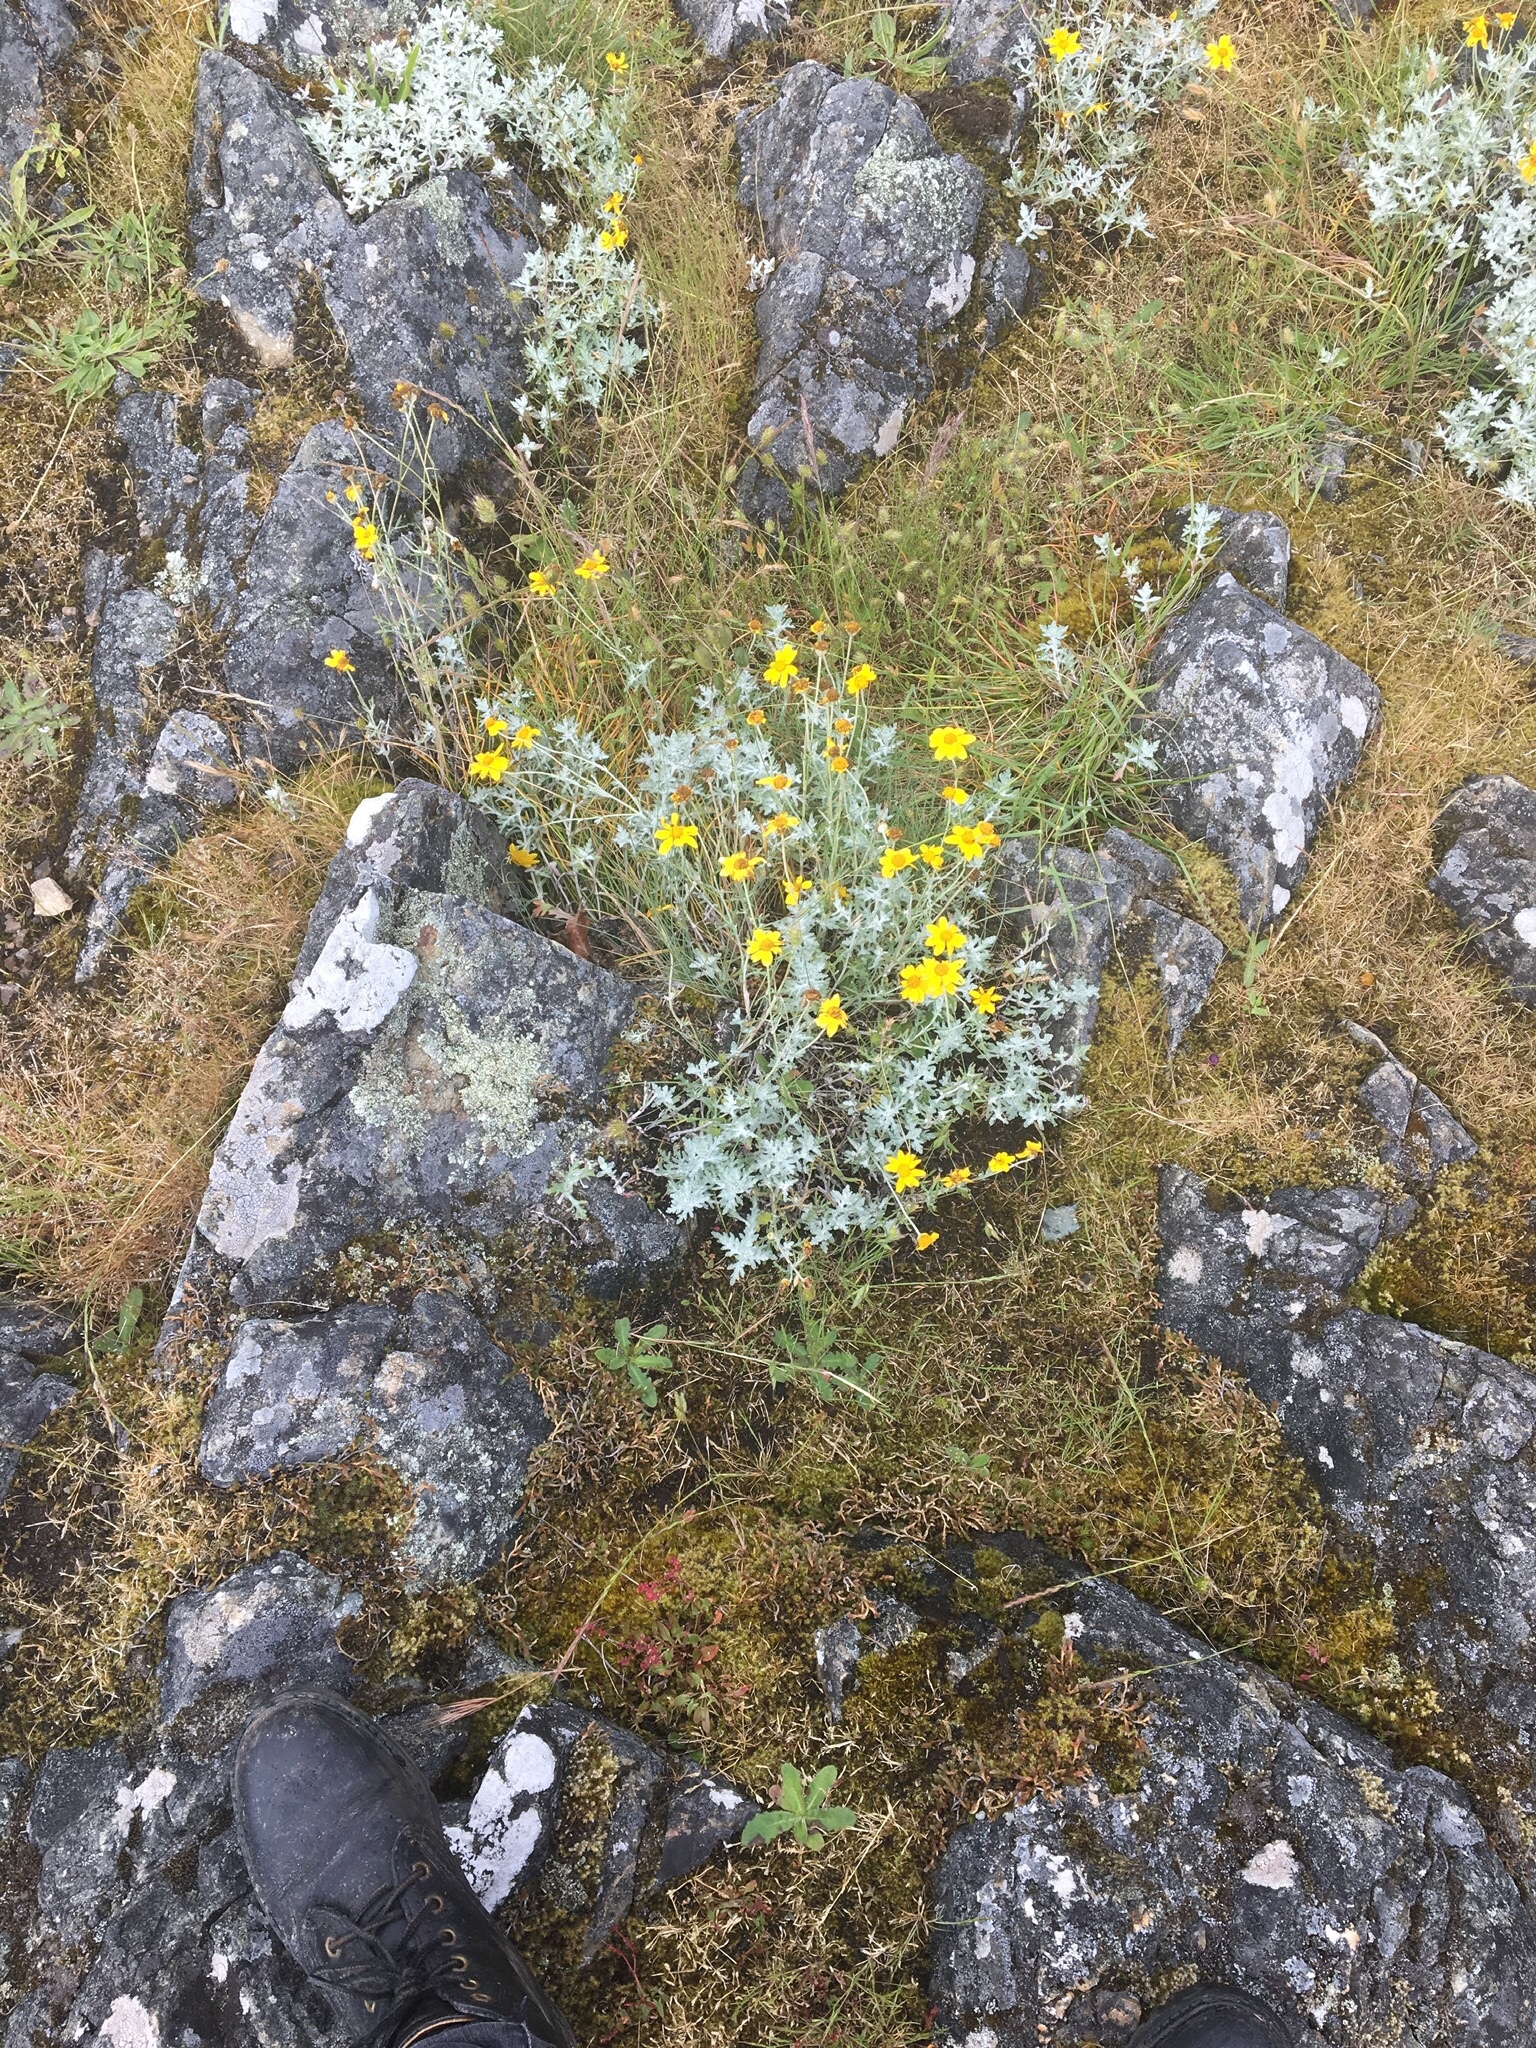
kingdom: Plantae
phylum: Tracheophyta
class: Magnoliopsida
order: Asterales
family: Asteraceae
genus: Eriophyllum
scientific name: Eriophyllum lanatum
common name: Common woolly-sunflower
